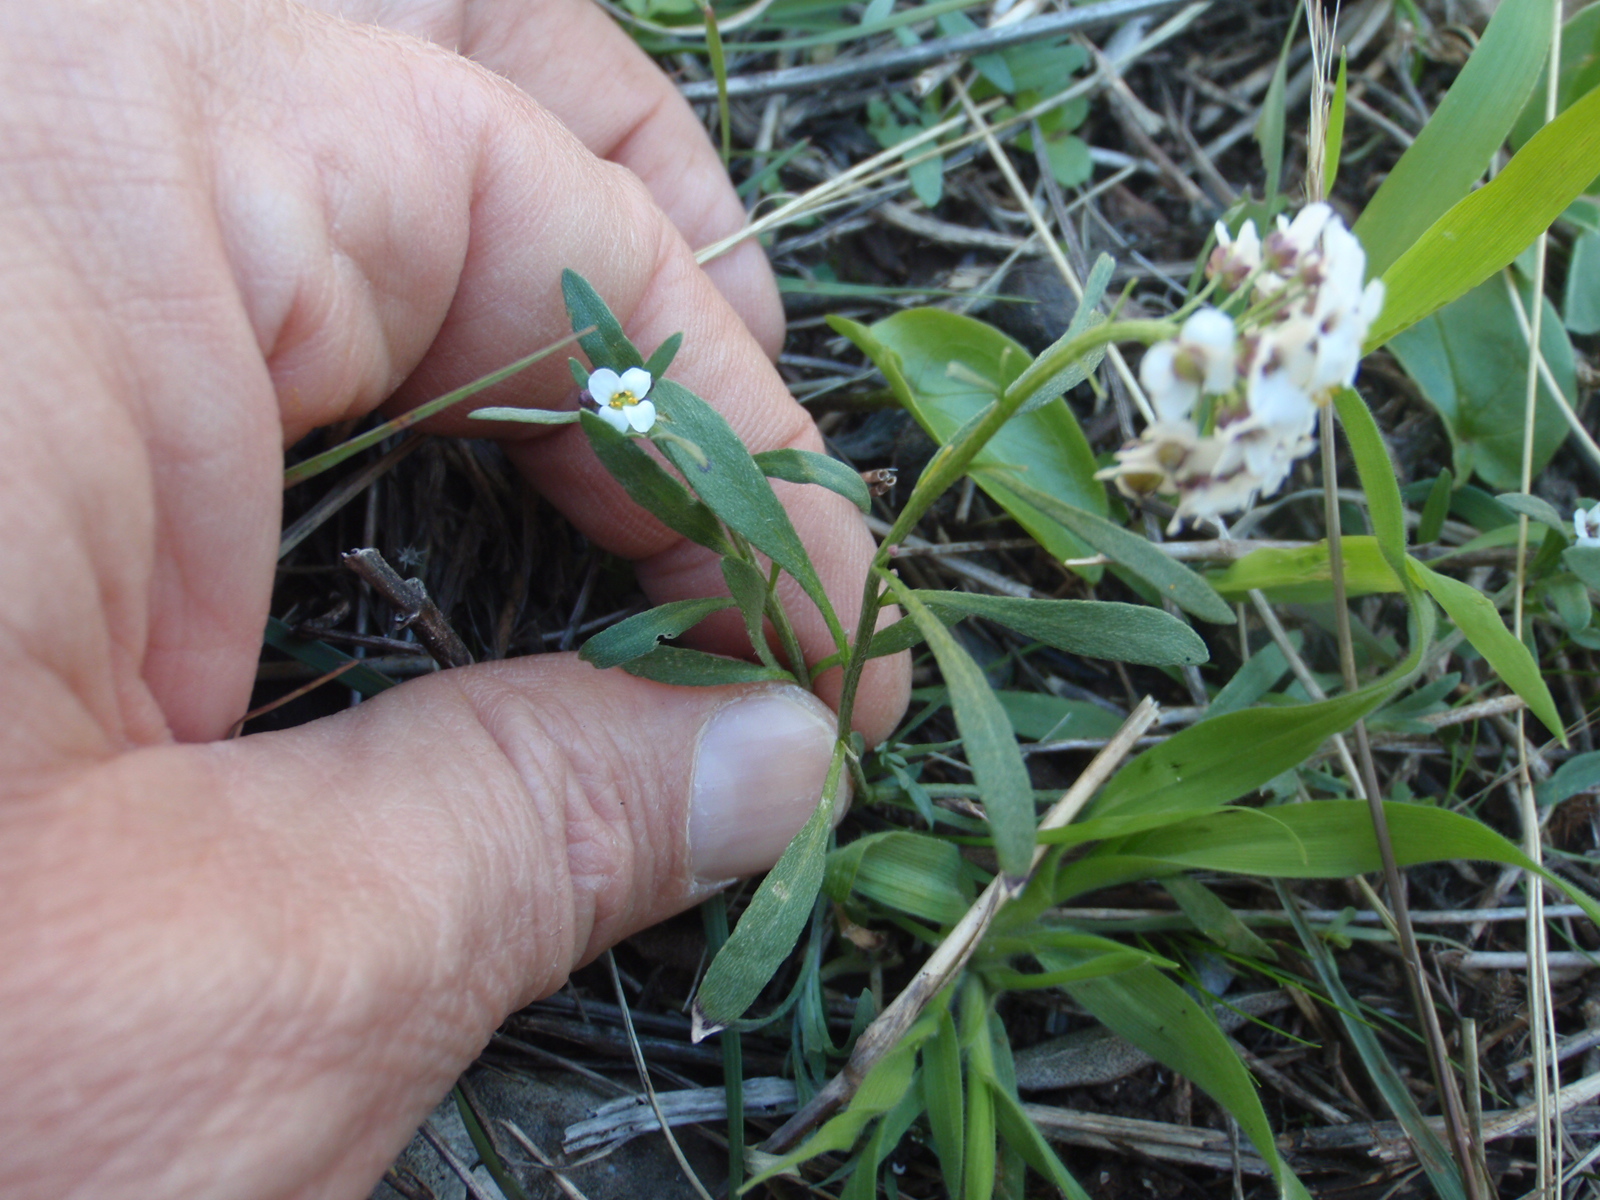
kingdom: Plantae
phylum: Tracheophyta
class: Magnoliopsida
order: Brassicales
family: Brassicaceae
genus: Lobularia
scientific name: Lobularia maritima
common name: Sweet alison
